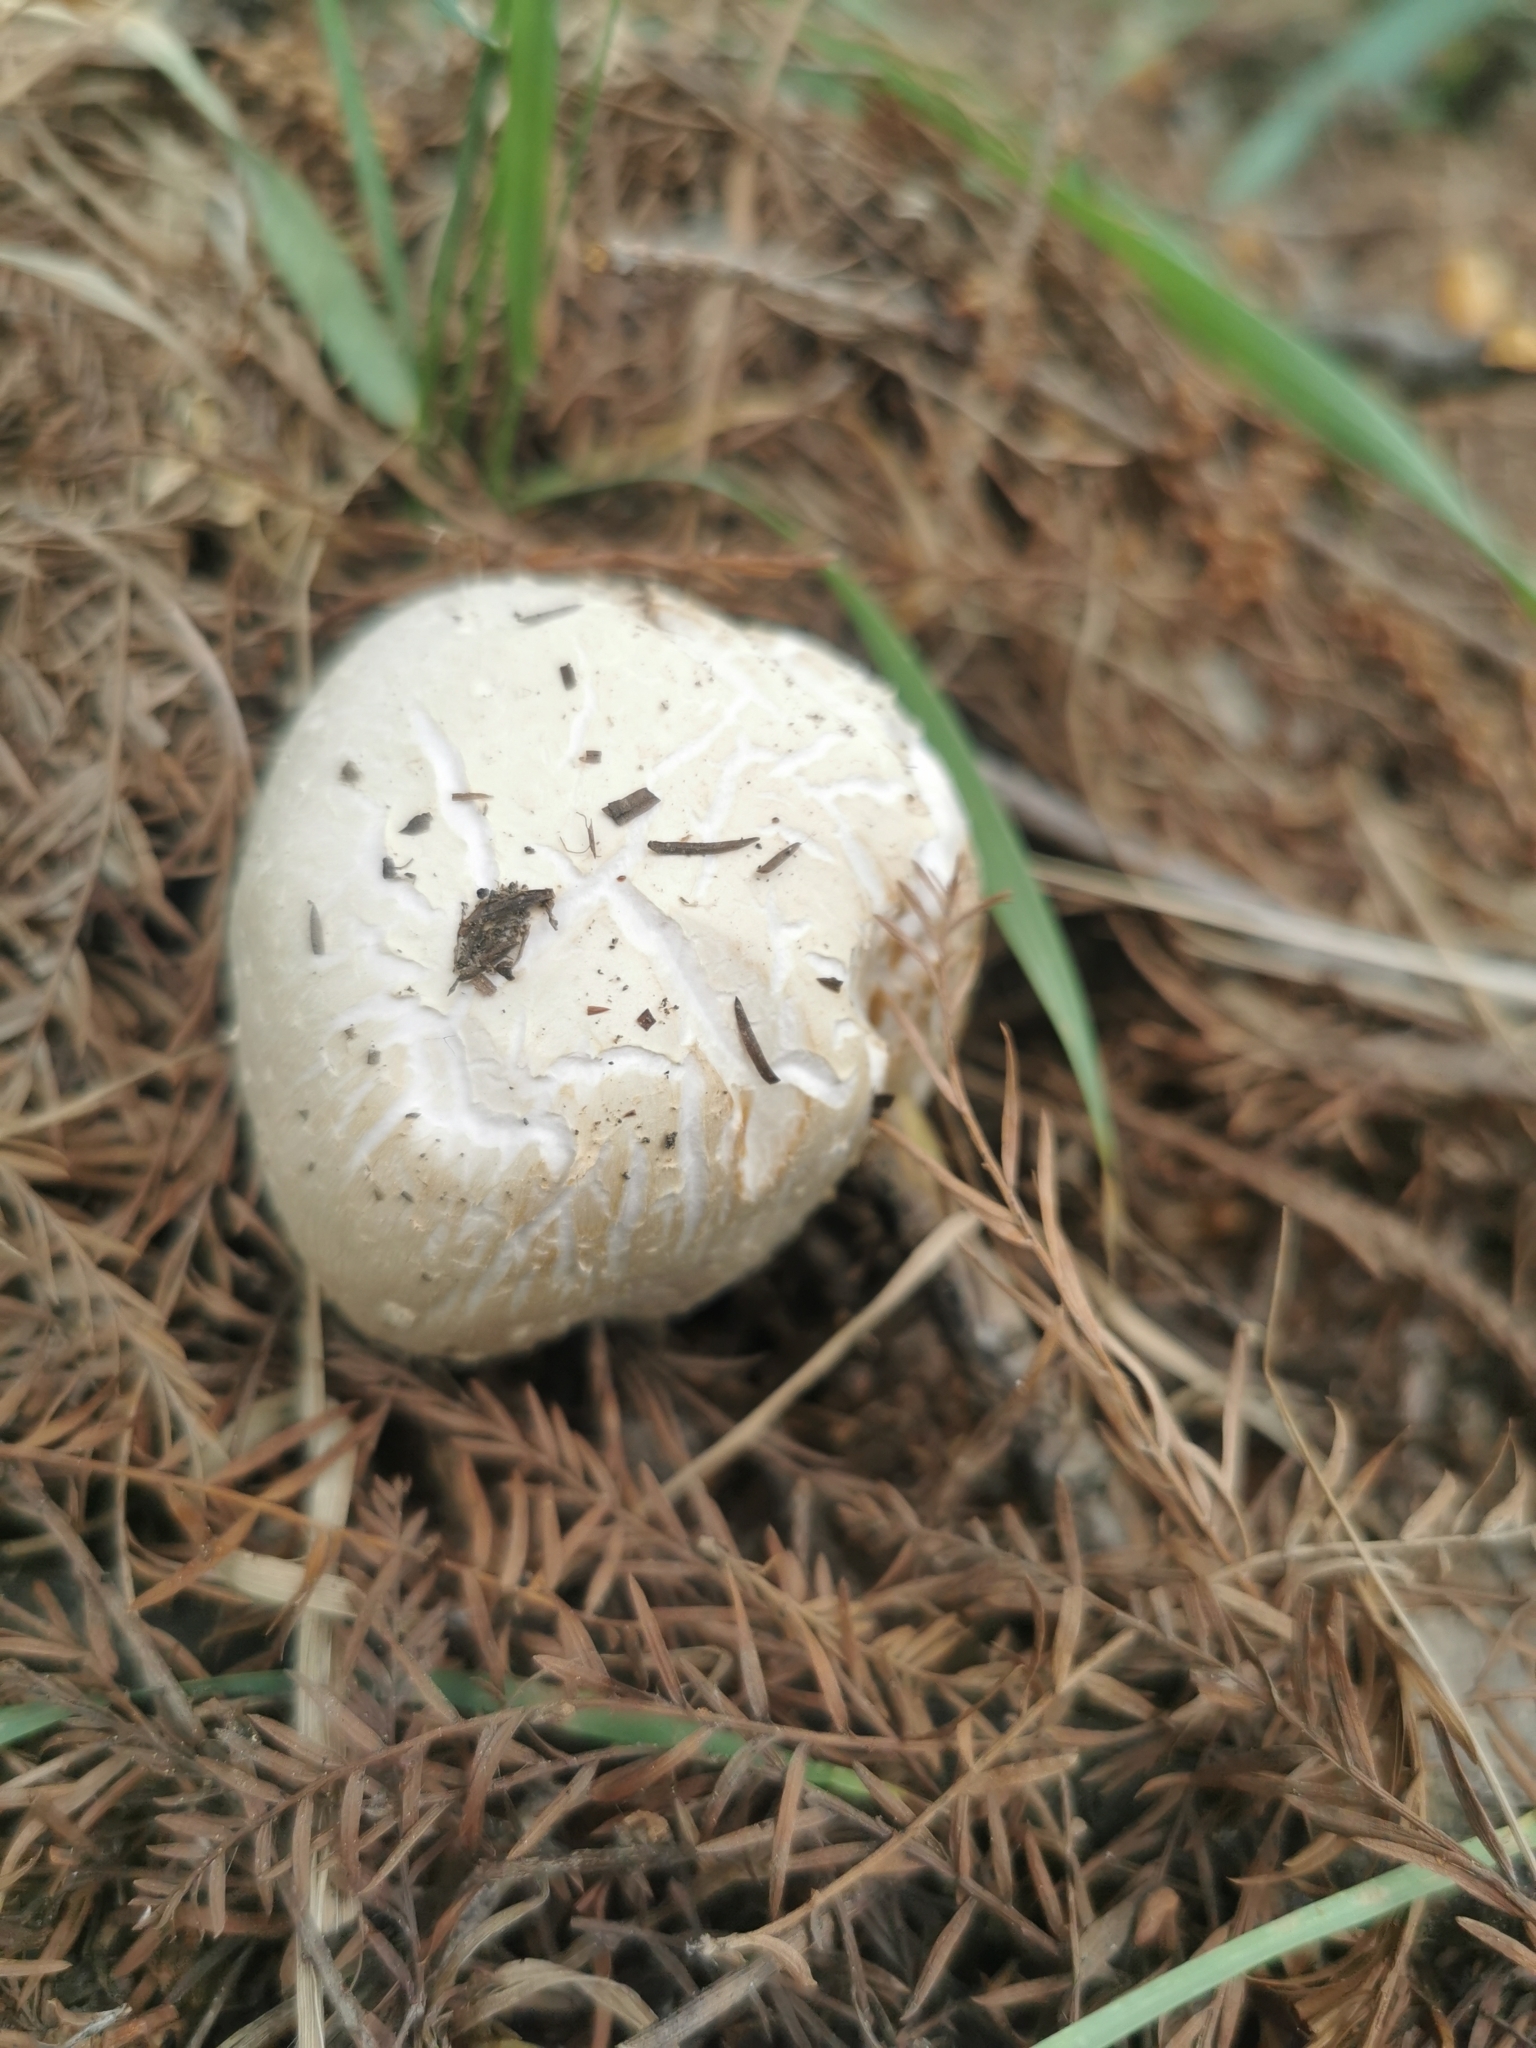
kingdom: Fungi
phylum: Basidiomycota
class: Agaricomycetes
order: Agaricales
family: Agaricaceae
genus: Leucoagaricus
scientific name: Leucoagaricus leucothites
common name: White dapperling
